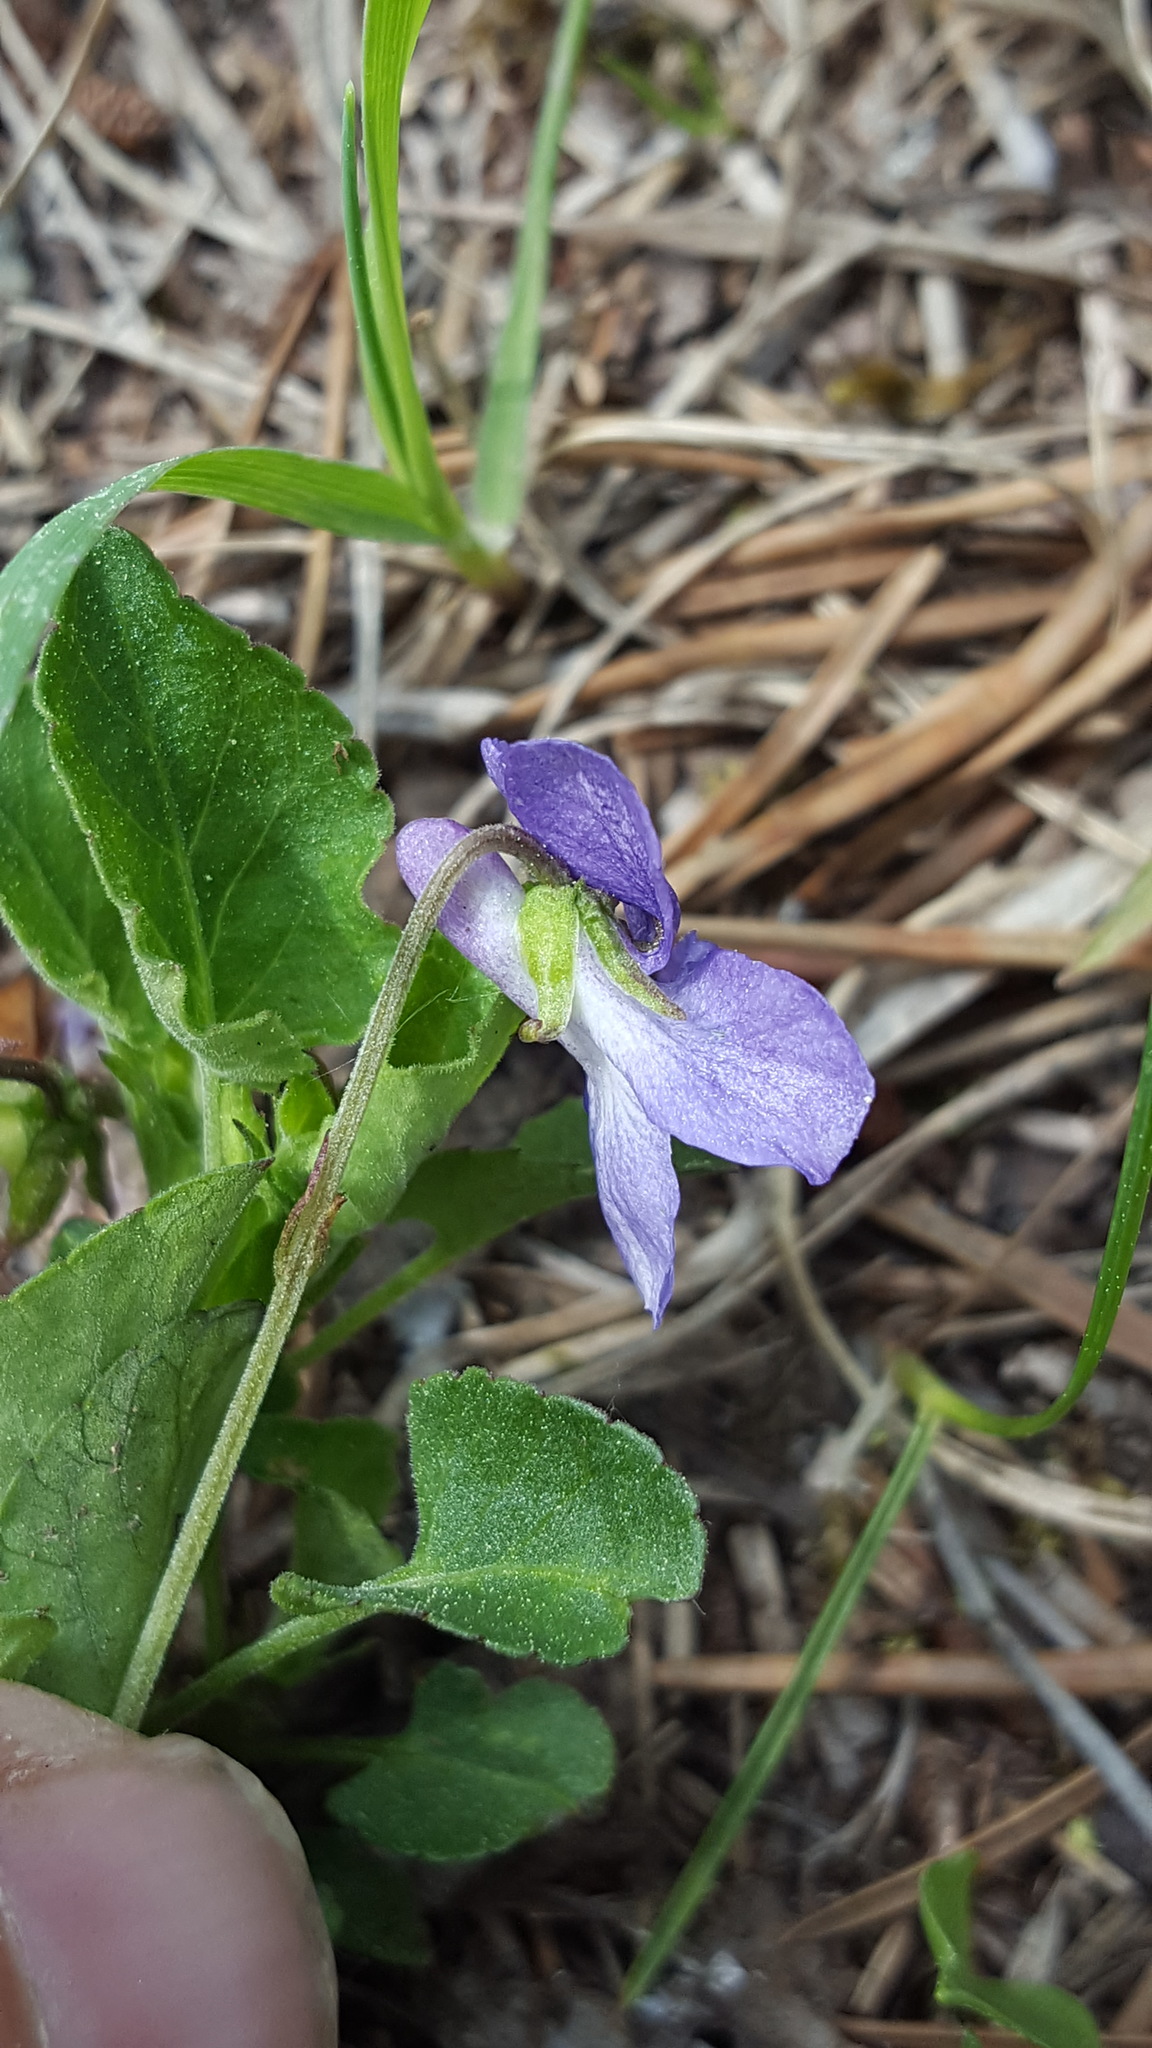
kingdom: Plantae
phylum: Tracheophyta
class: Magnoliopsida
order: Malpighiales
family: Violaceae
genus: Viola
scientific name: Viola adunca
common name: Sand violet
